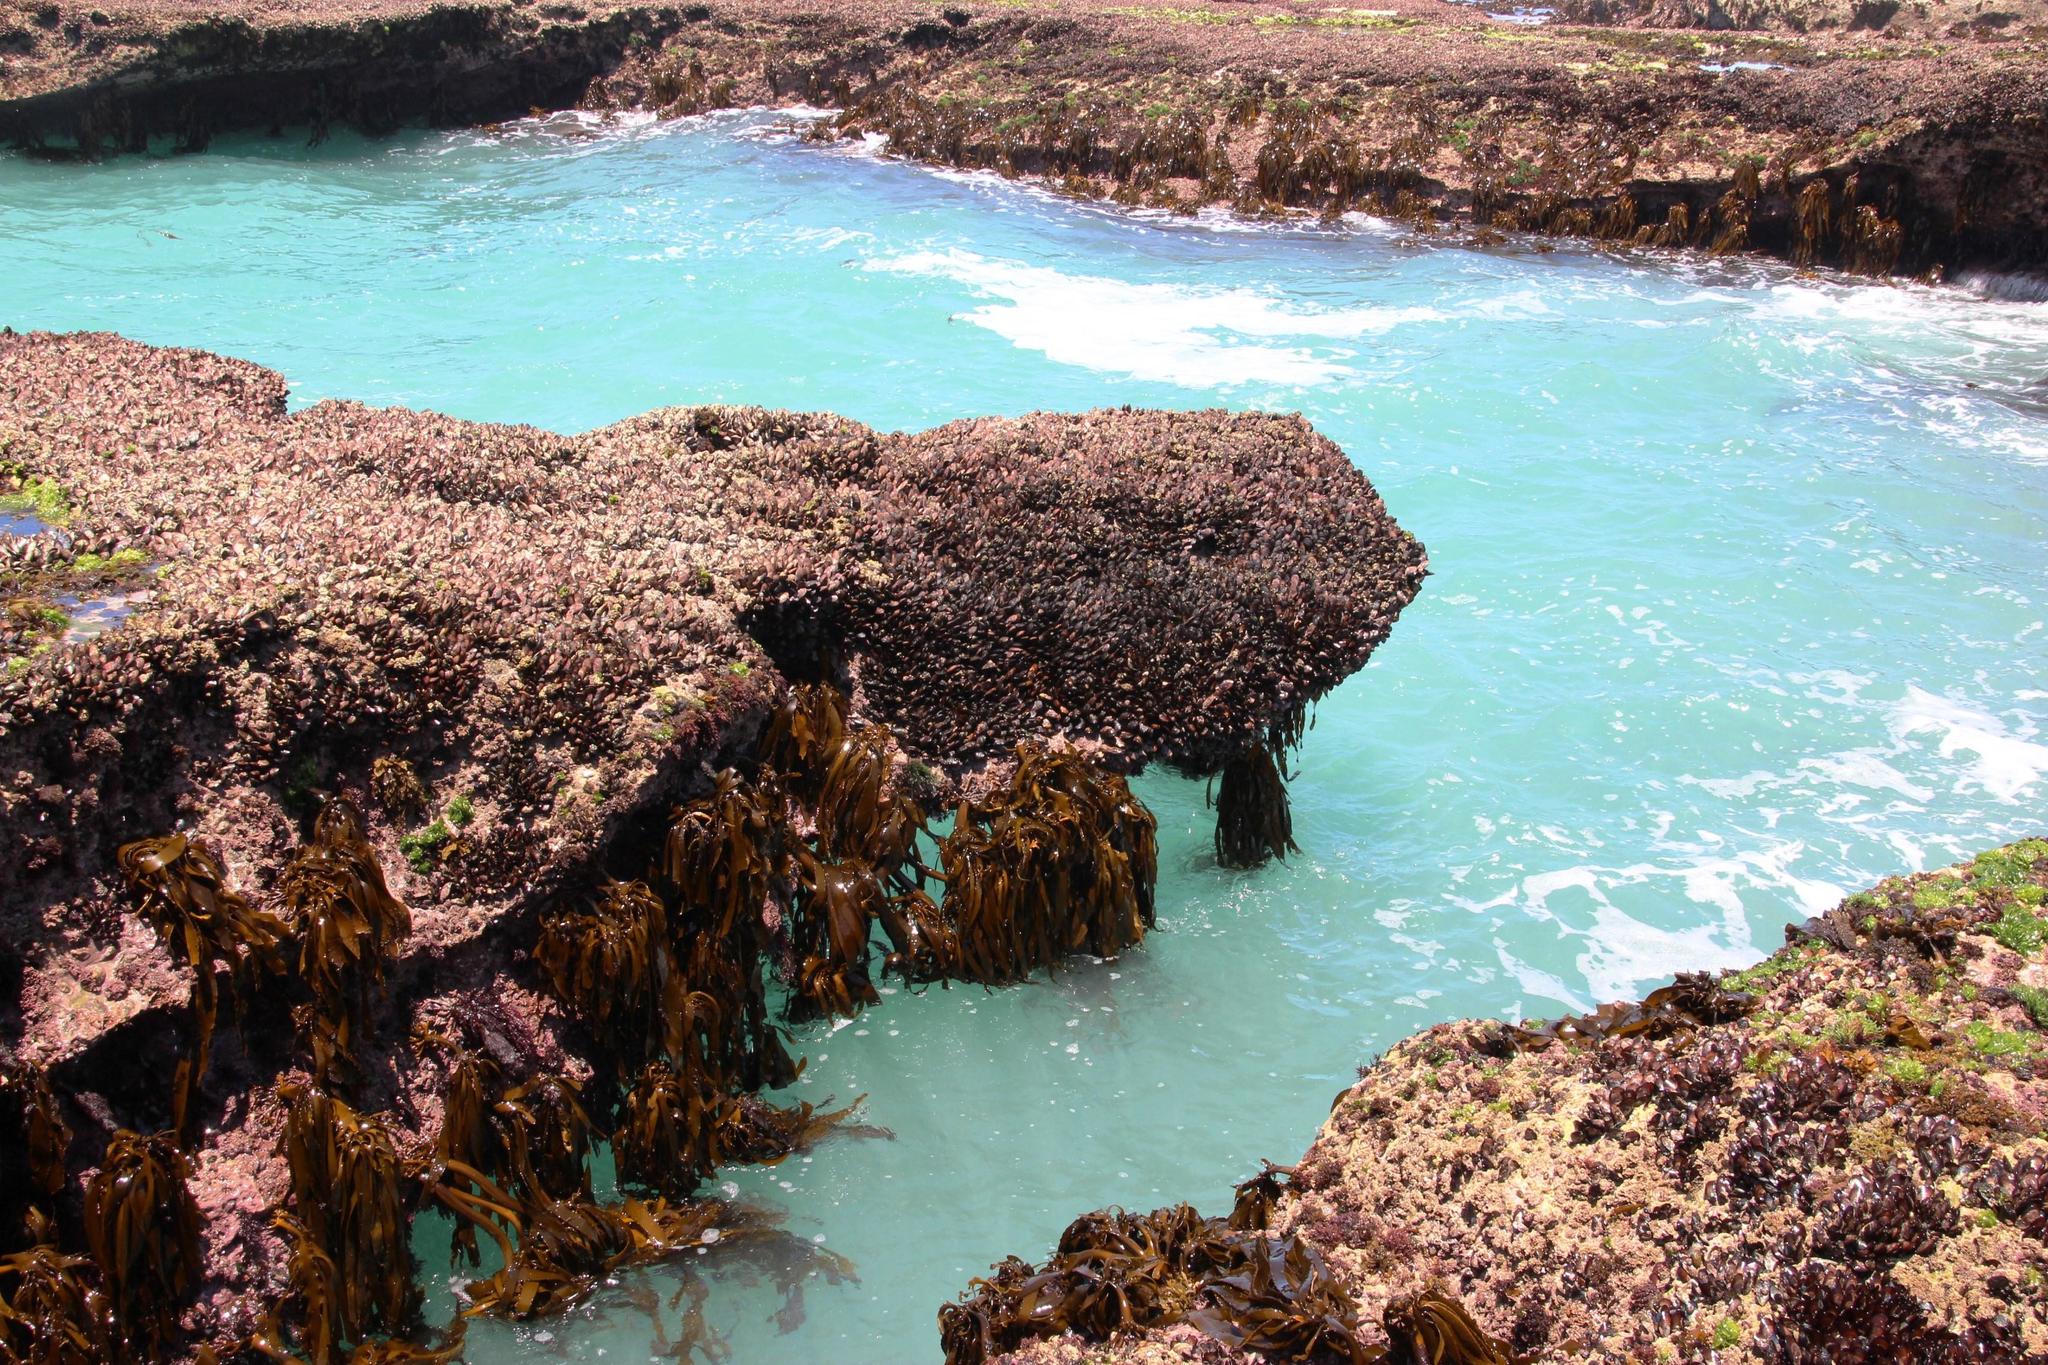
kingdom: Animalia
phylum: Mollusca
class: Bivalvia
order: Mytilida
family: Mytilidae
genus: Perna
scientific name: Perna perna
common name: Mexilhao mussel
